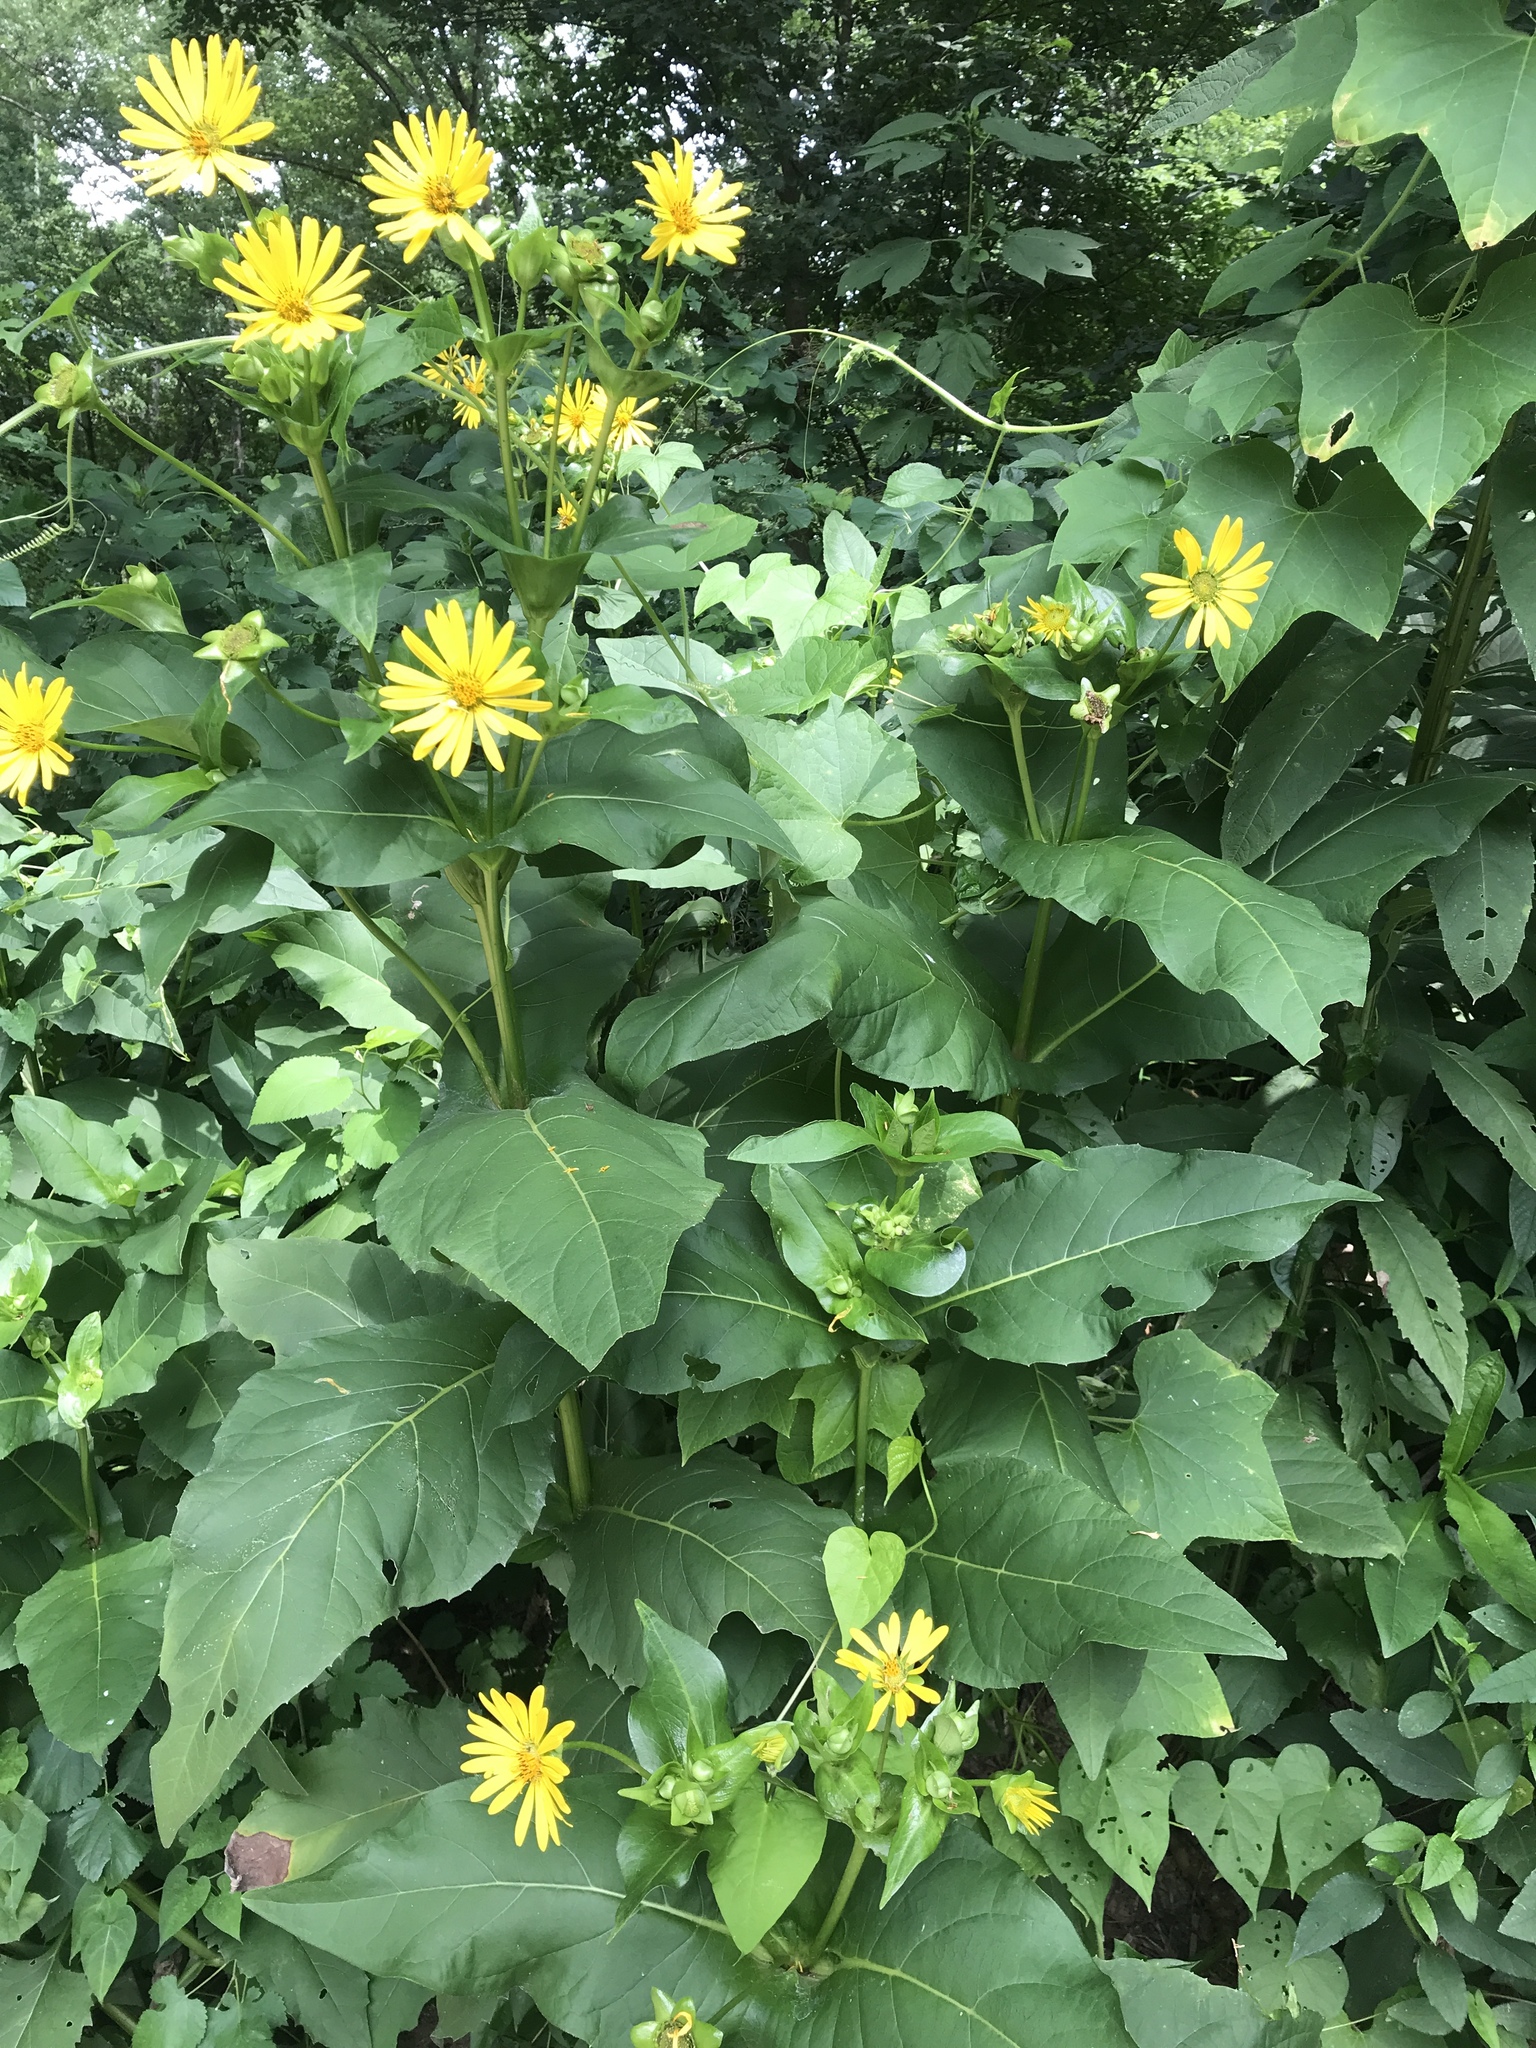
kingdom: Plantae
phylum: Tracheophyta
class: Magnoliopsida
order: Asterales
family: Asteraceae
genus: Silphium
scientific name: Silphium perfoliatum
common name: Cup-plant
